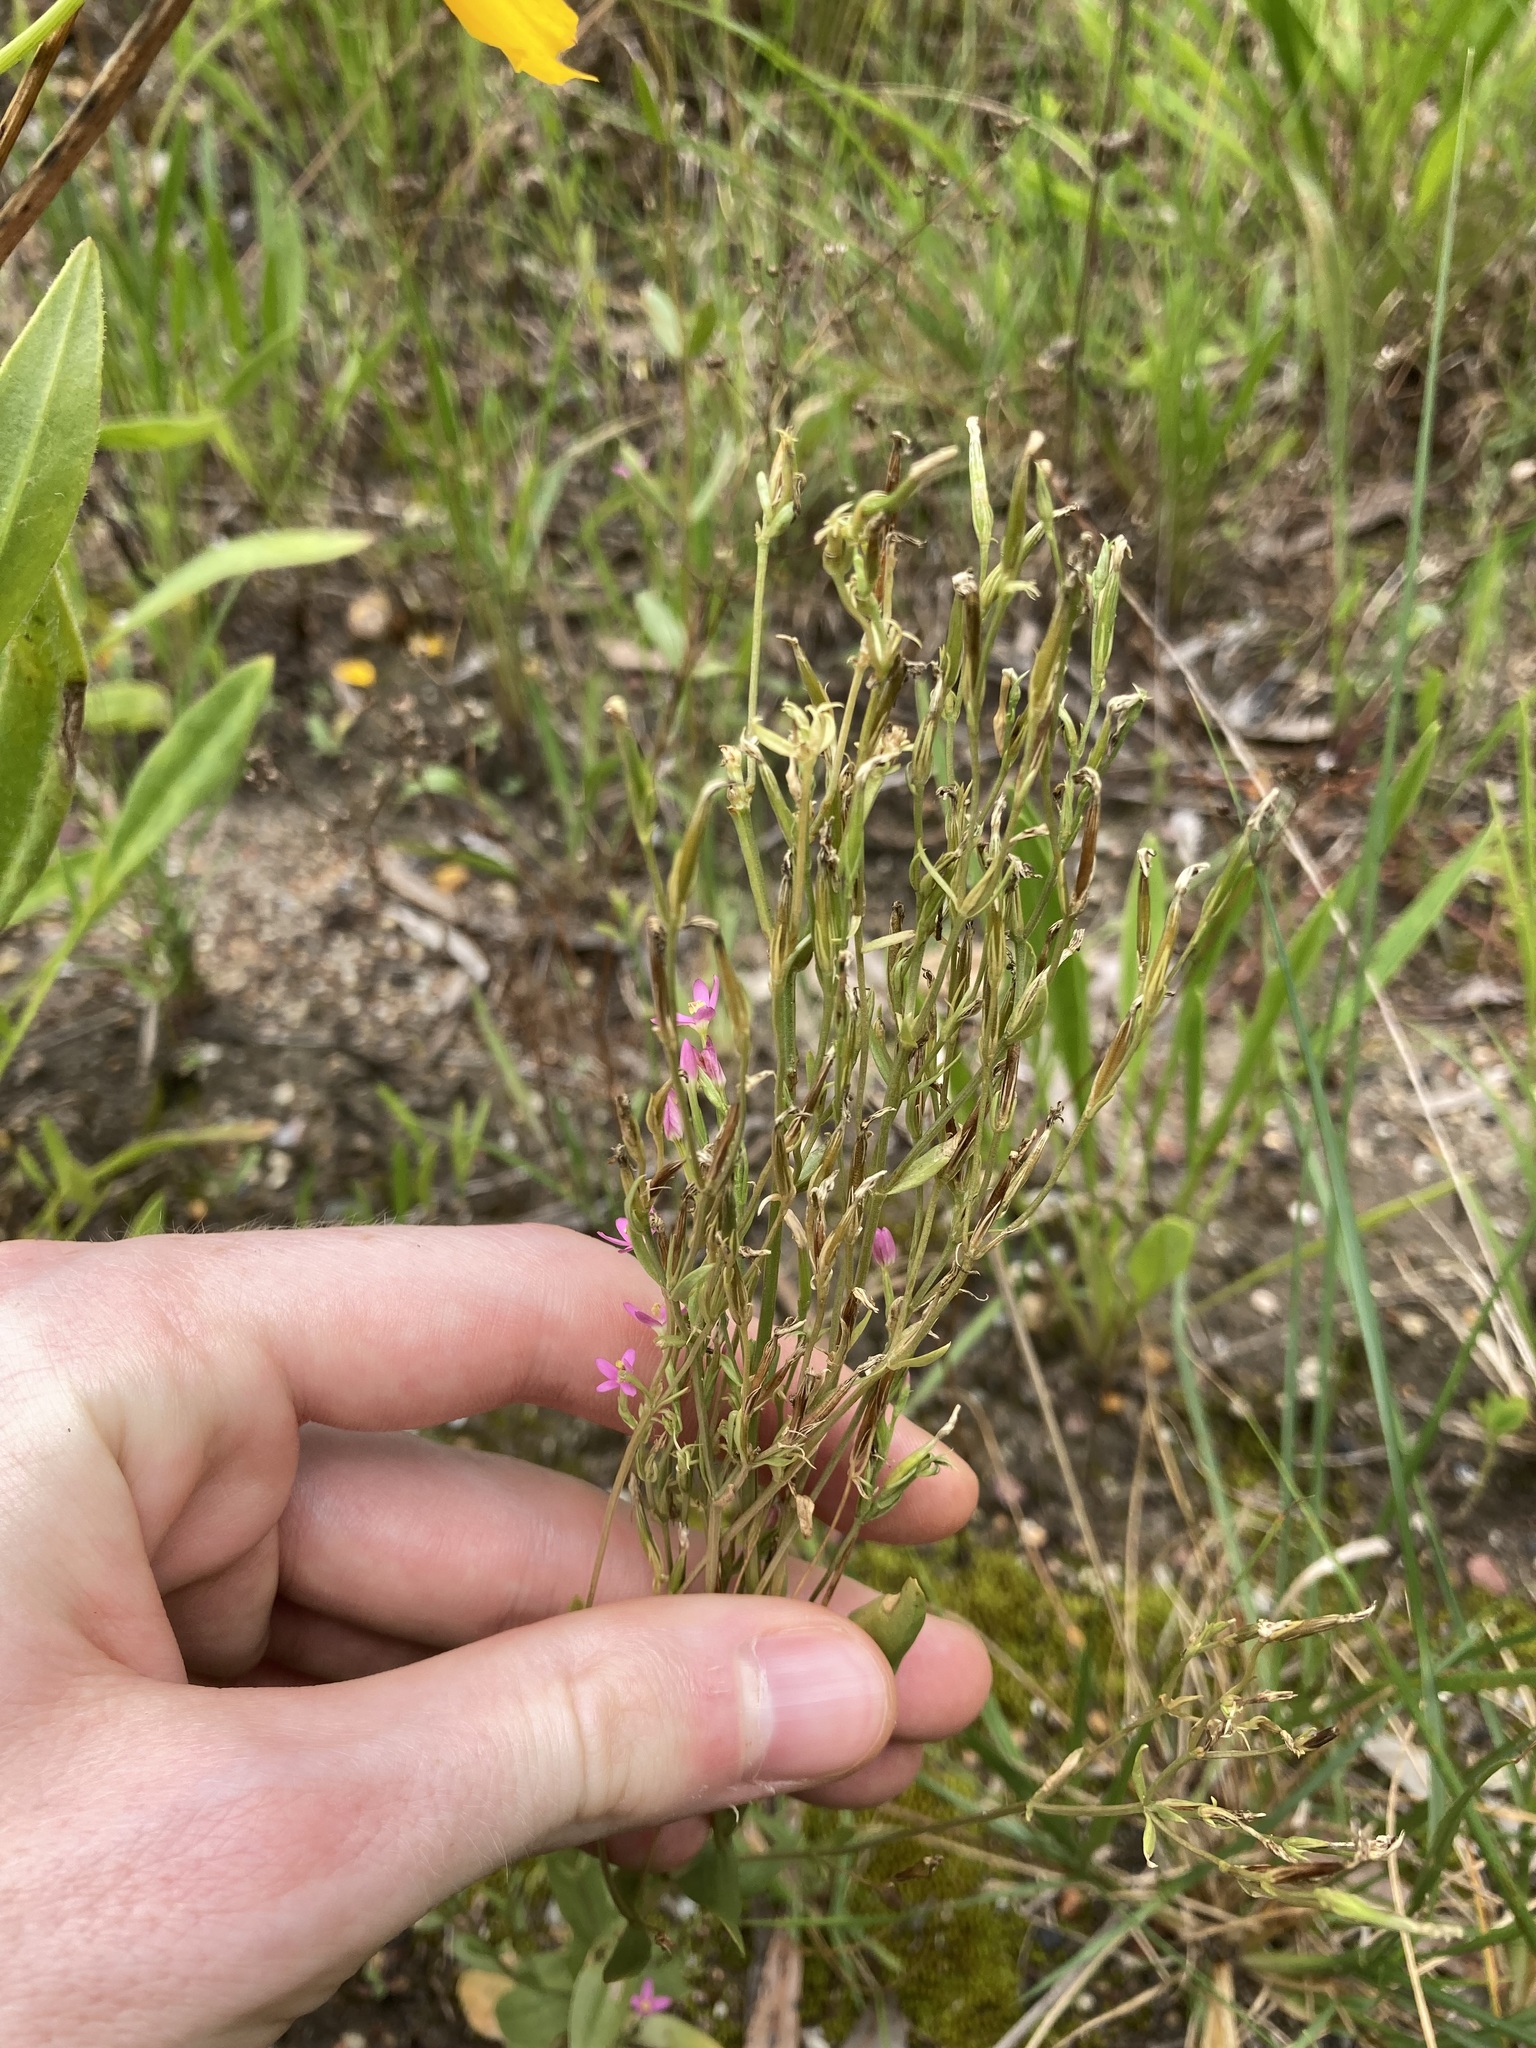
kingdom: Plantae
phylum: Tracheophyta
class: Magnoliopsida
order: Gentianales
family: Gentianaceae
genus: Centaurium
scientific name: Centaurium erythraea
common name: Common centaury
